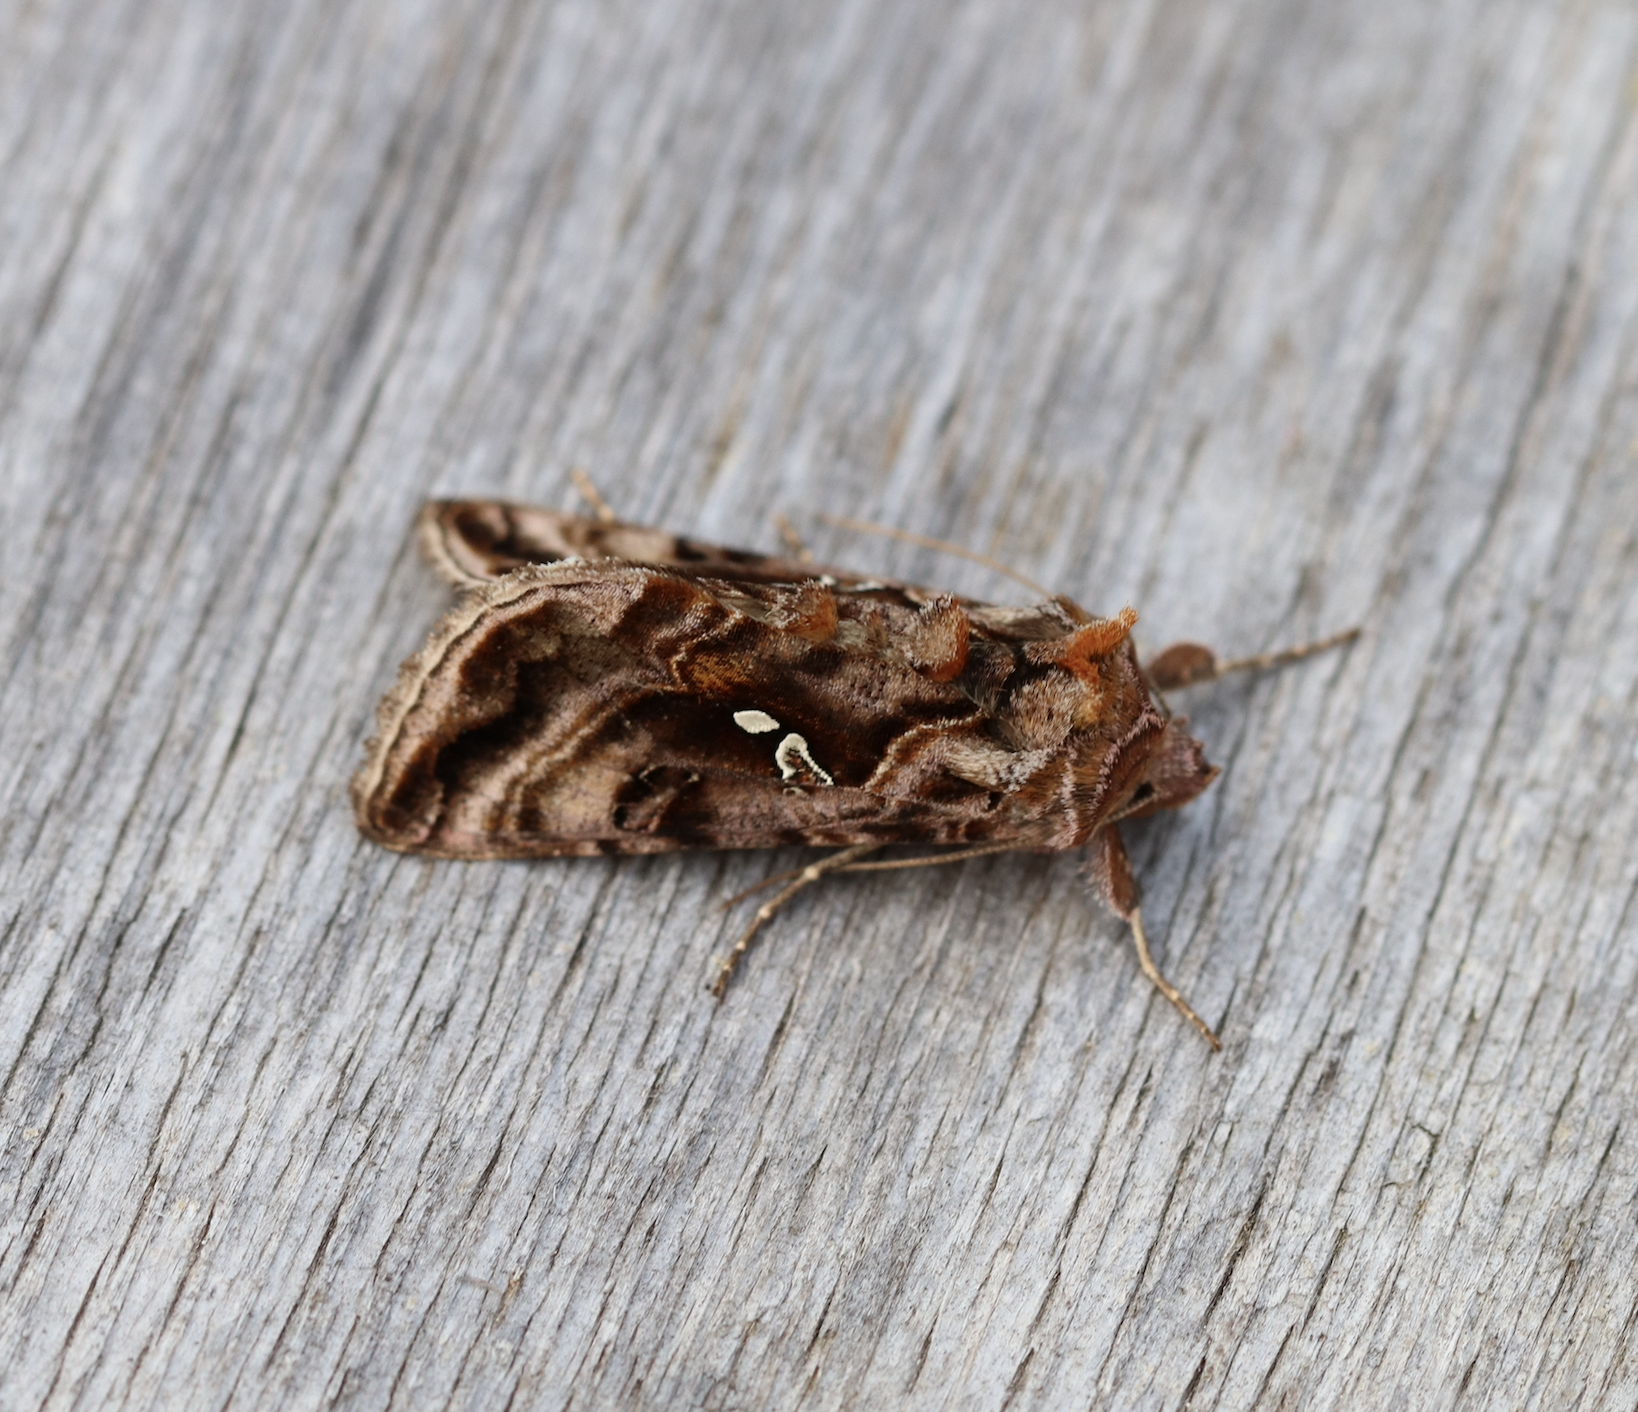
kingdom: Animalia
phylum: Arthropoda
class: Insecta
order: Lepidoptera
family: Noctuidae
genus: Autographa
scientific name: Autographa pulchrina
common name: Beautiful golden y
